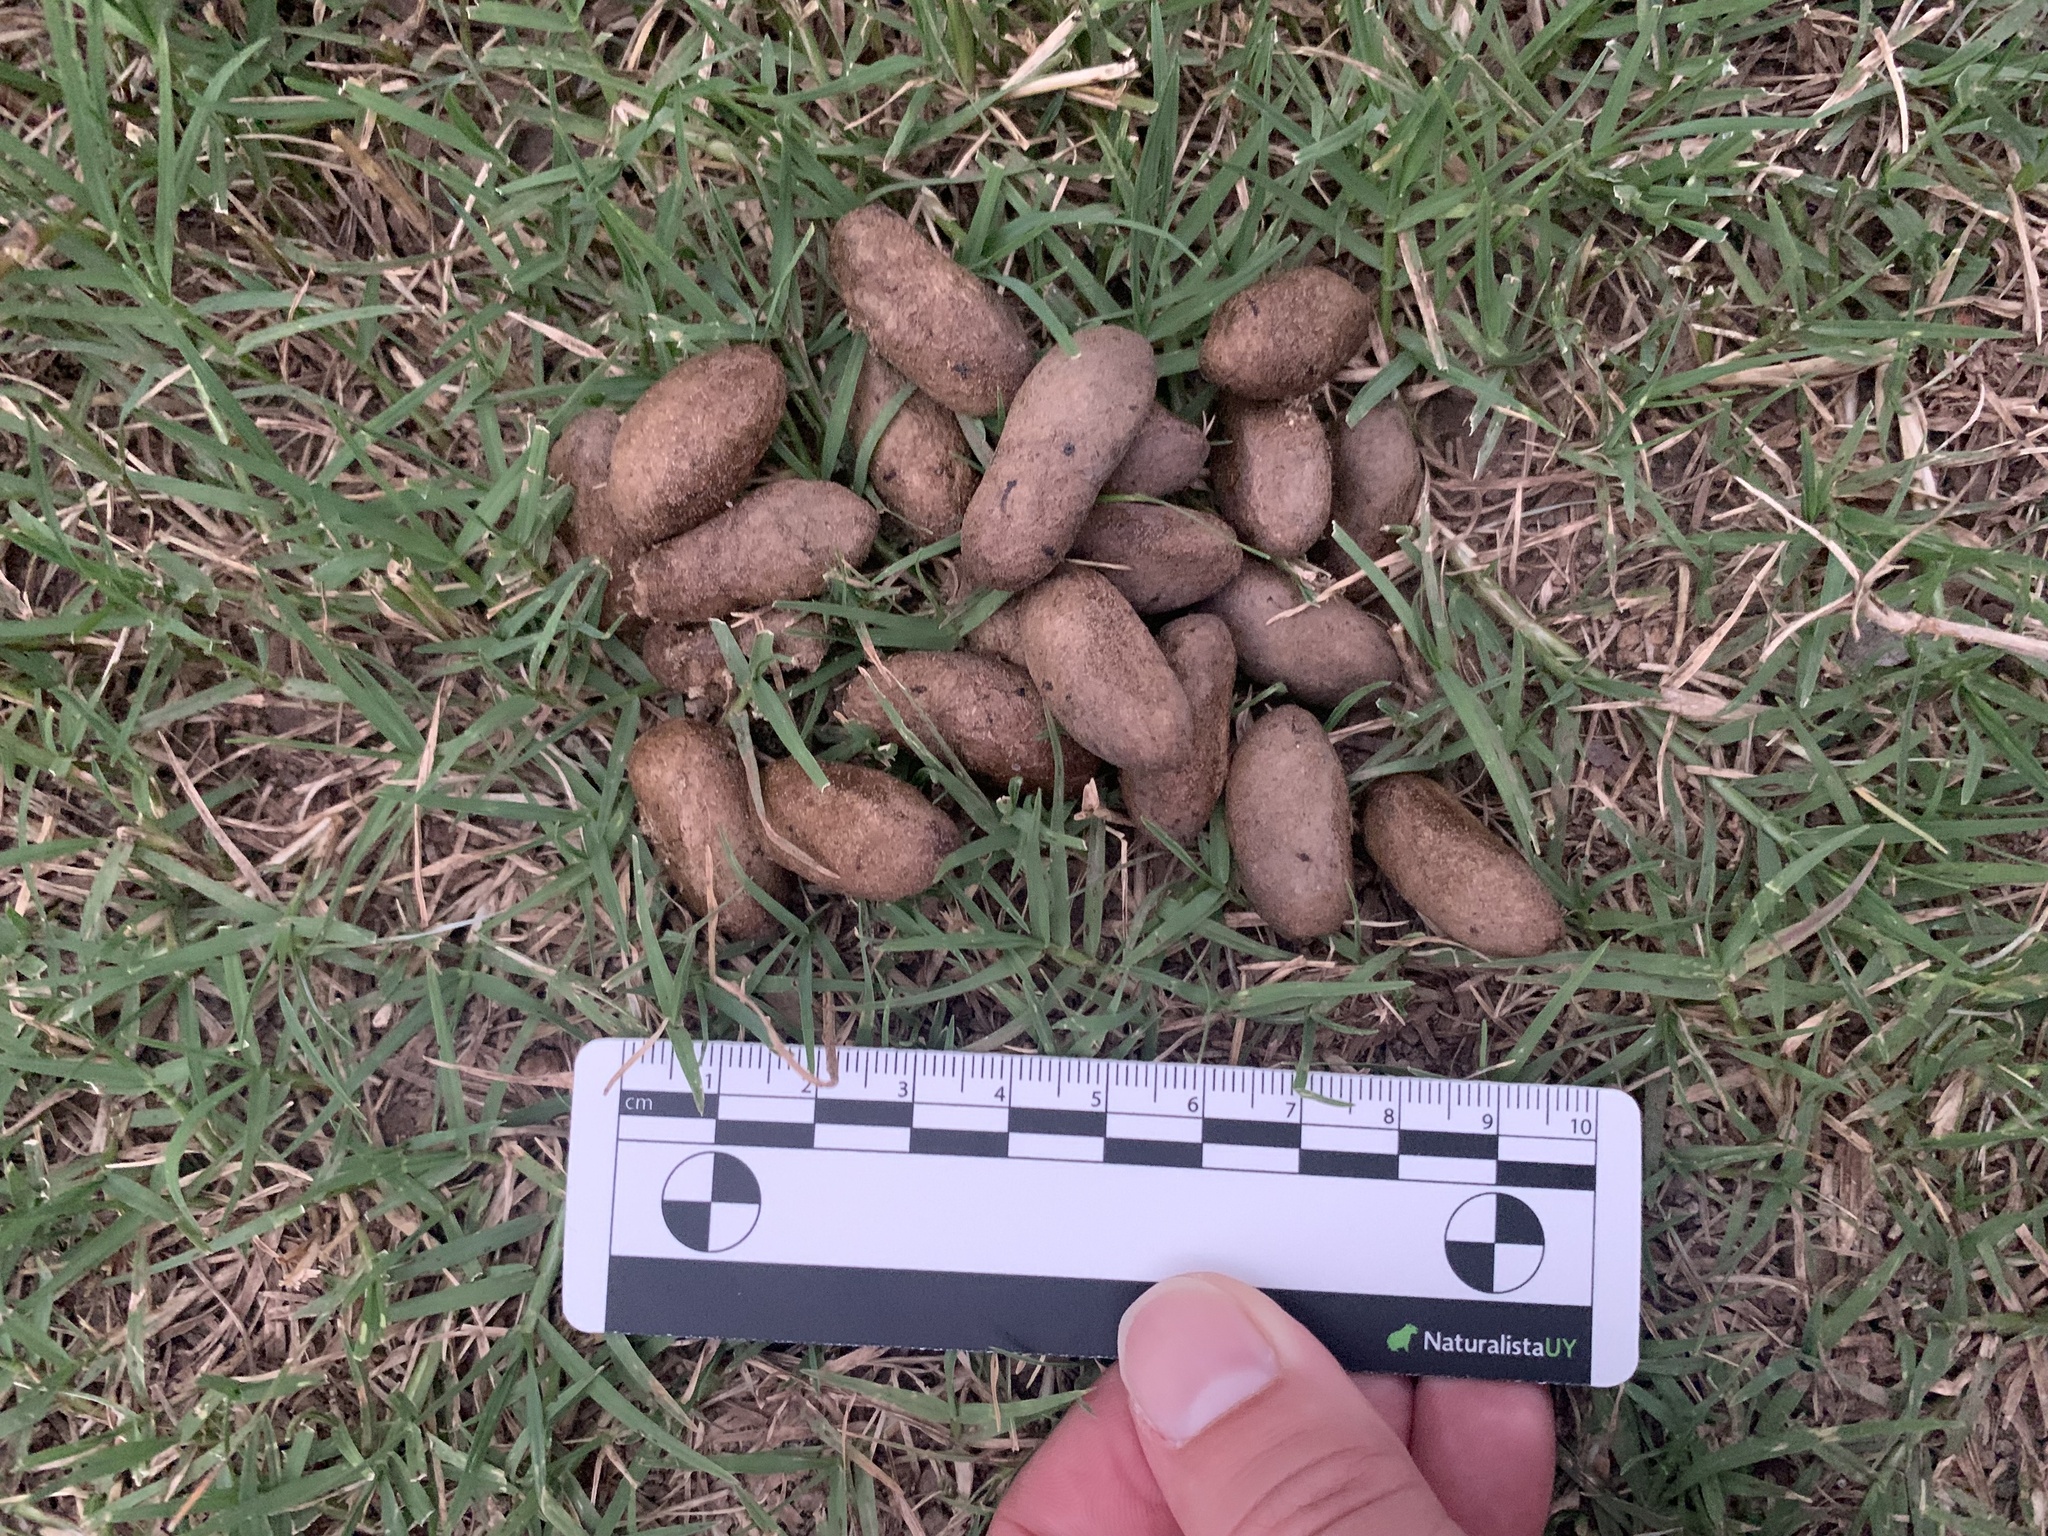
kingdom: Animalia
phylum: Chordata
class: Mammalia
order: Rodentia
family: Caviidae
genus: Hydrochoerus
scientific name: Hydrochoerus hydrochaeris
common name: Capybara
